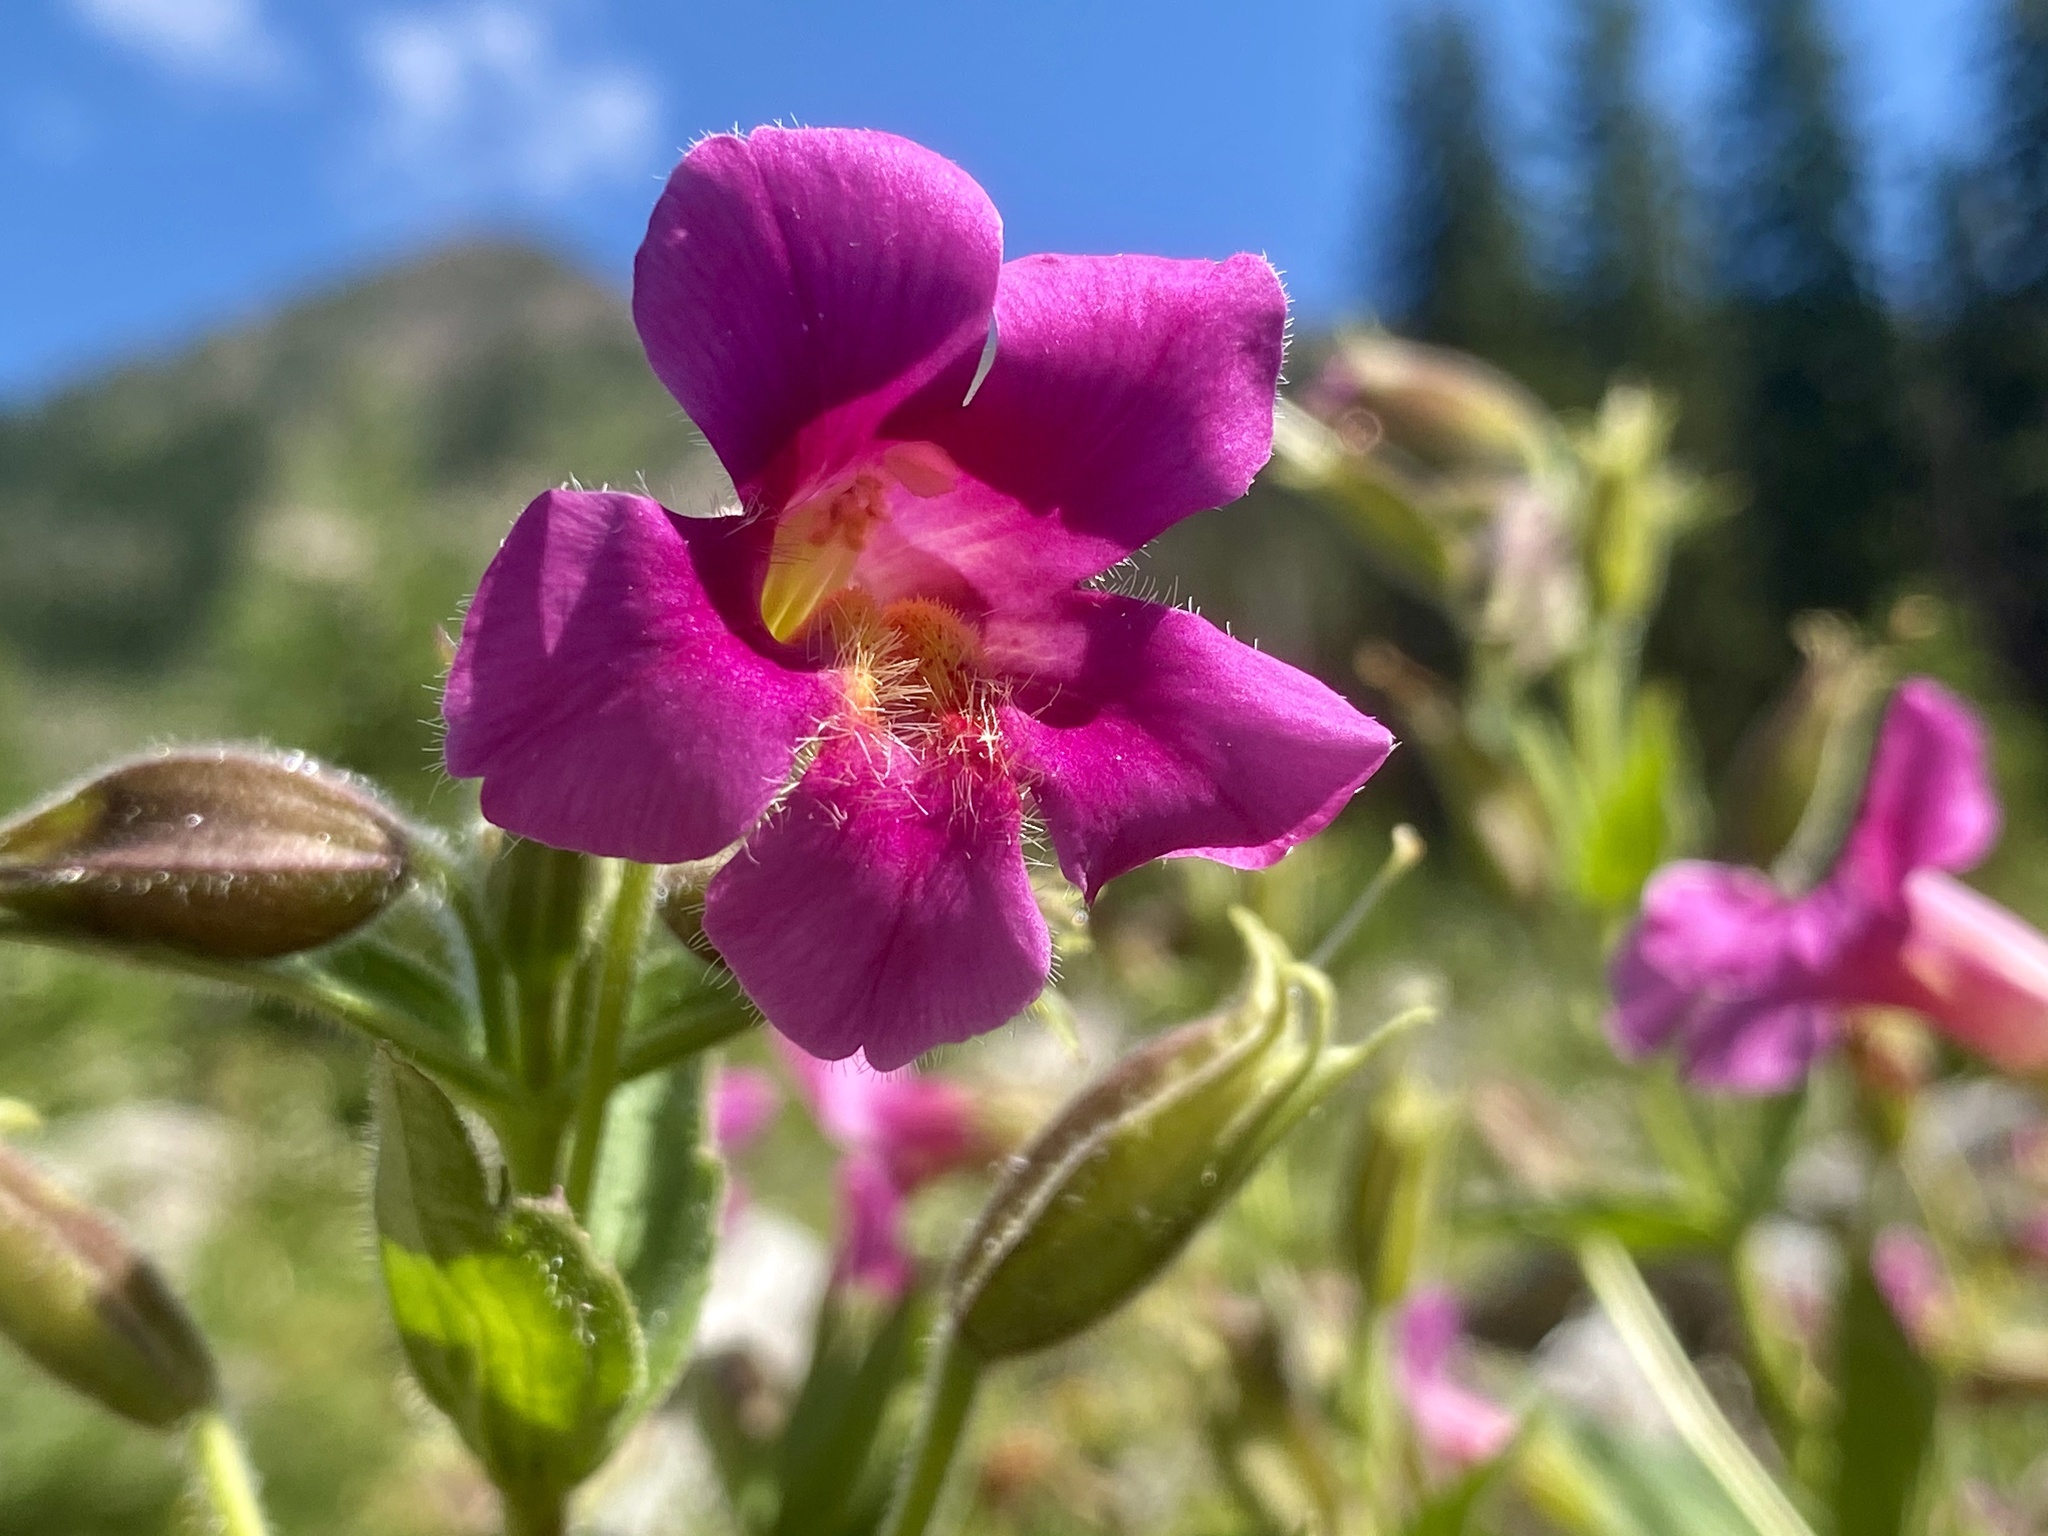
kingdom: Plantae
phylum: Tracheophyta
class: Magnoliopsida
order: Lamiales
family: Phrymaceae
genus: Erythranthe
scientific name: Erythranthe lewisii
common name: Lewis's monkey-flower
